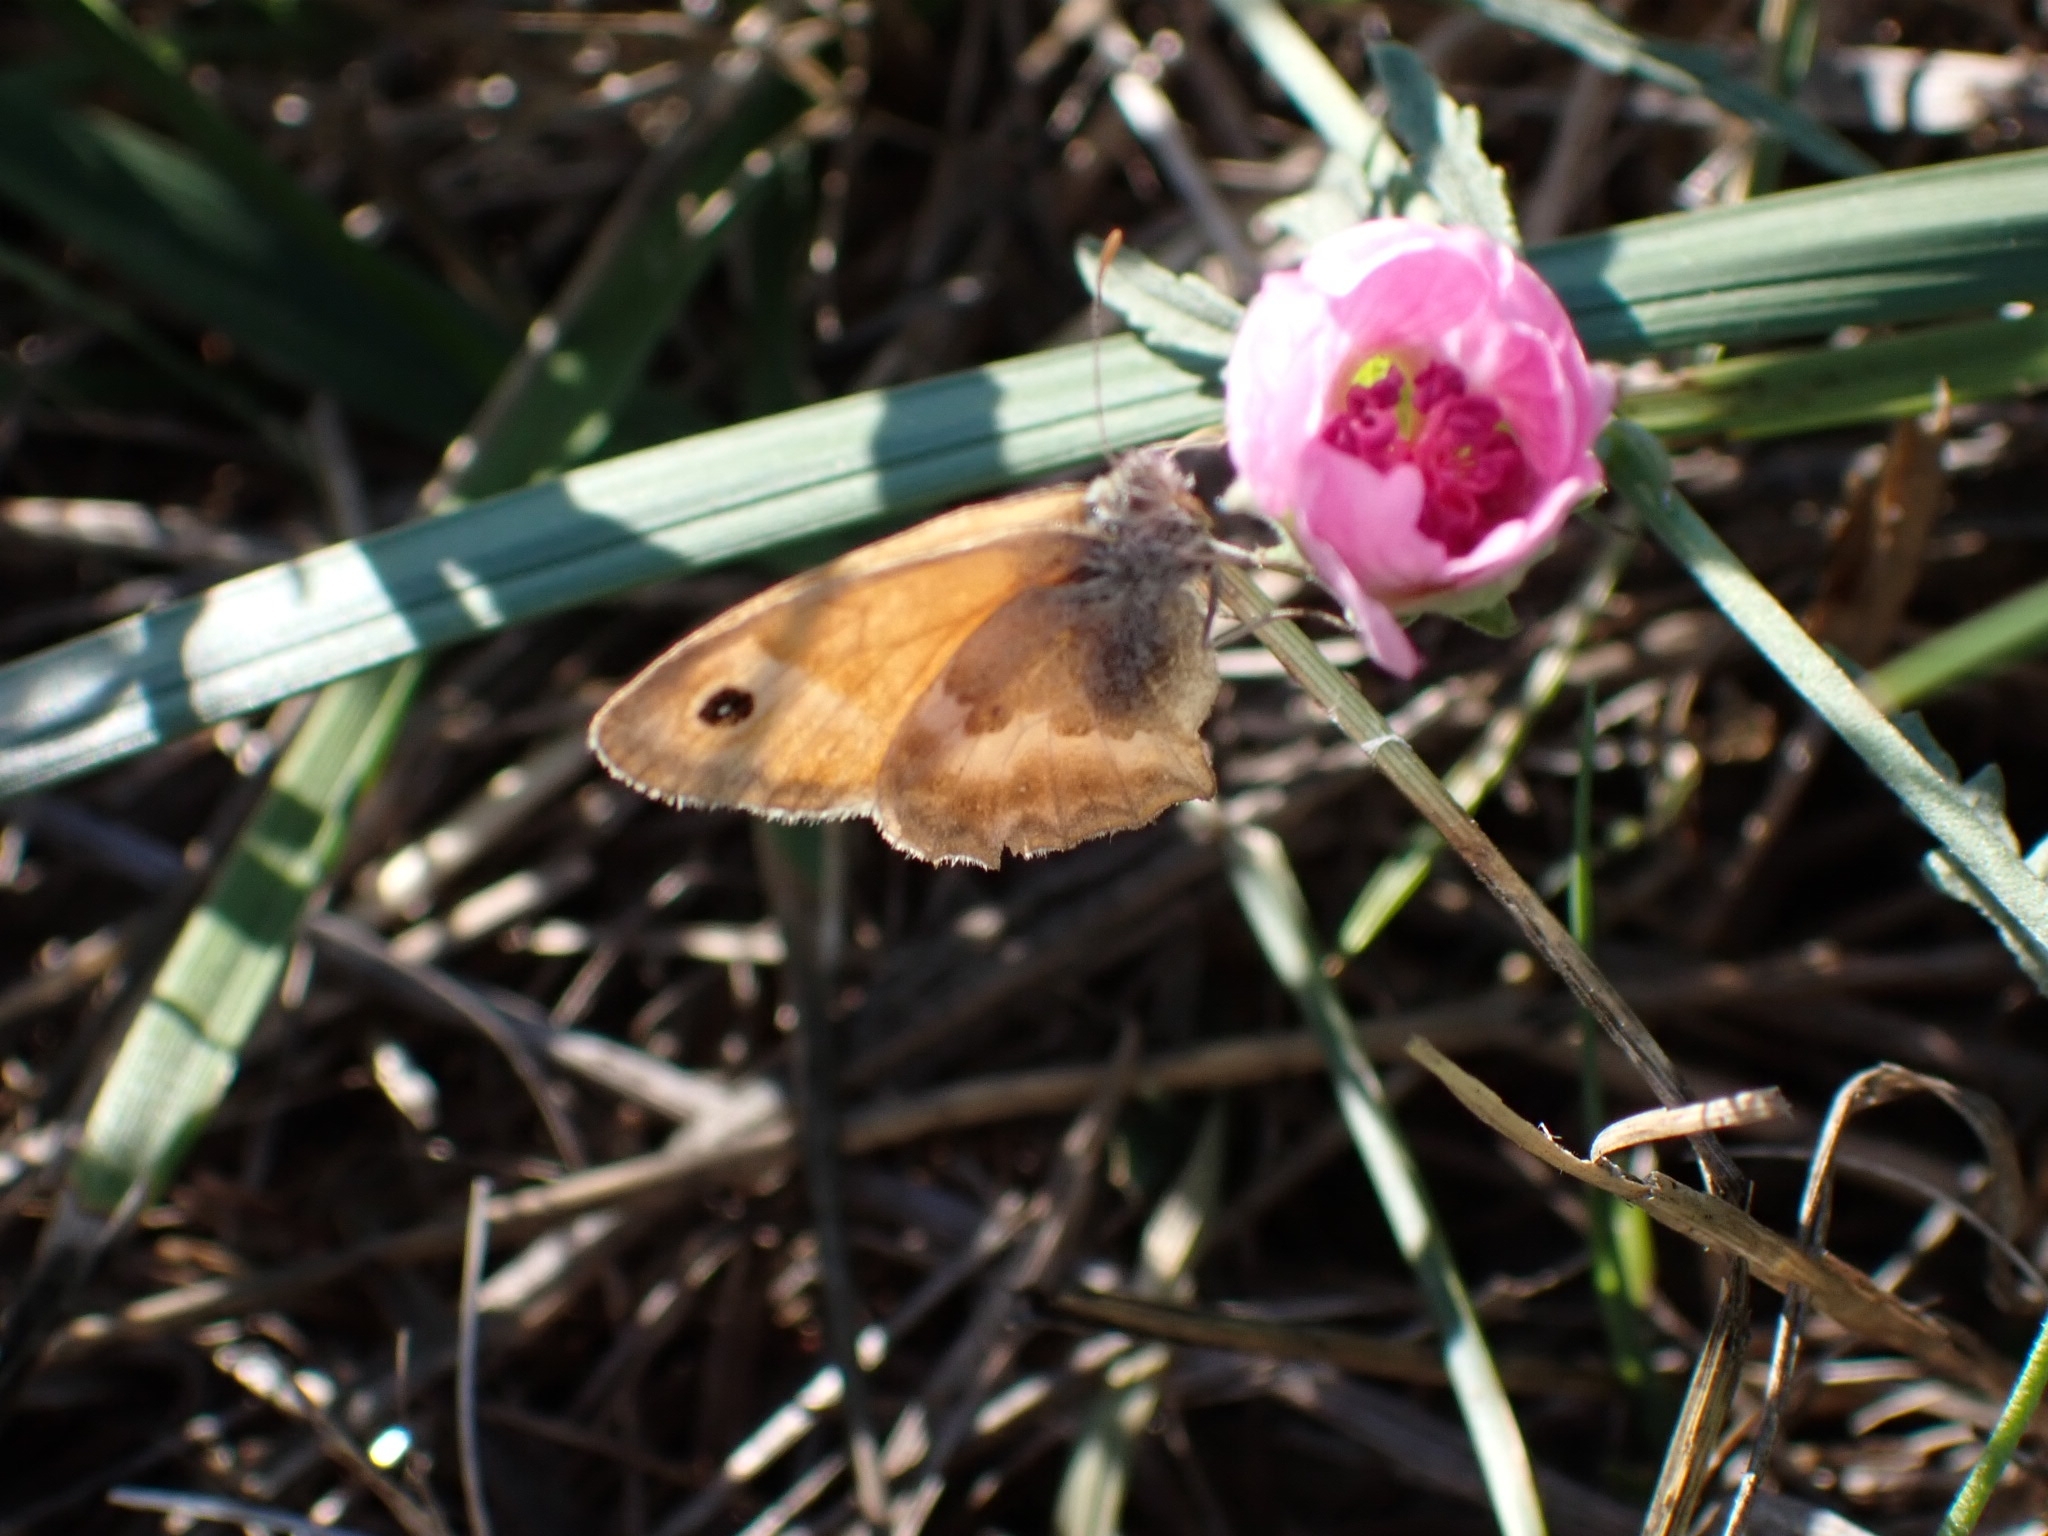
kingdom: Animalia
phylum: Arthropoda
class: Insecta
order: Lepidoptera
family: Nymphalidae
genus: Coenonympha
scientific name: Coenonympha pamphilus
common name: Small heath
